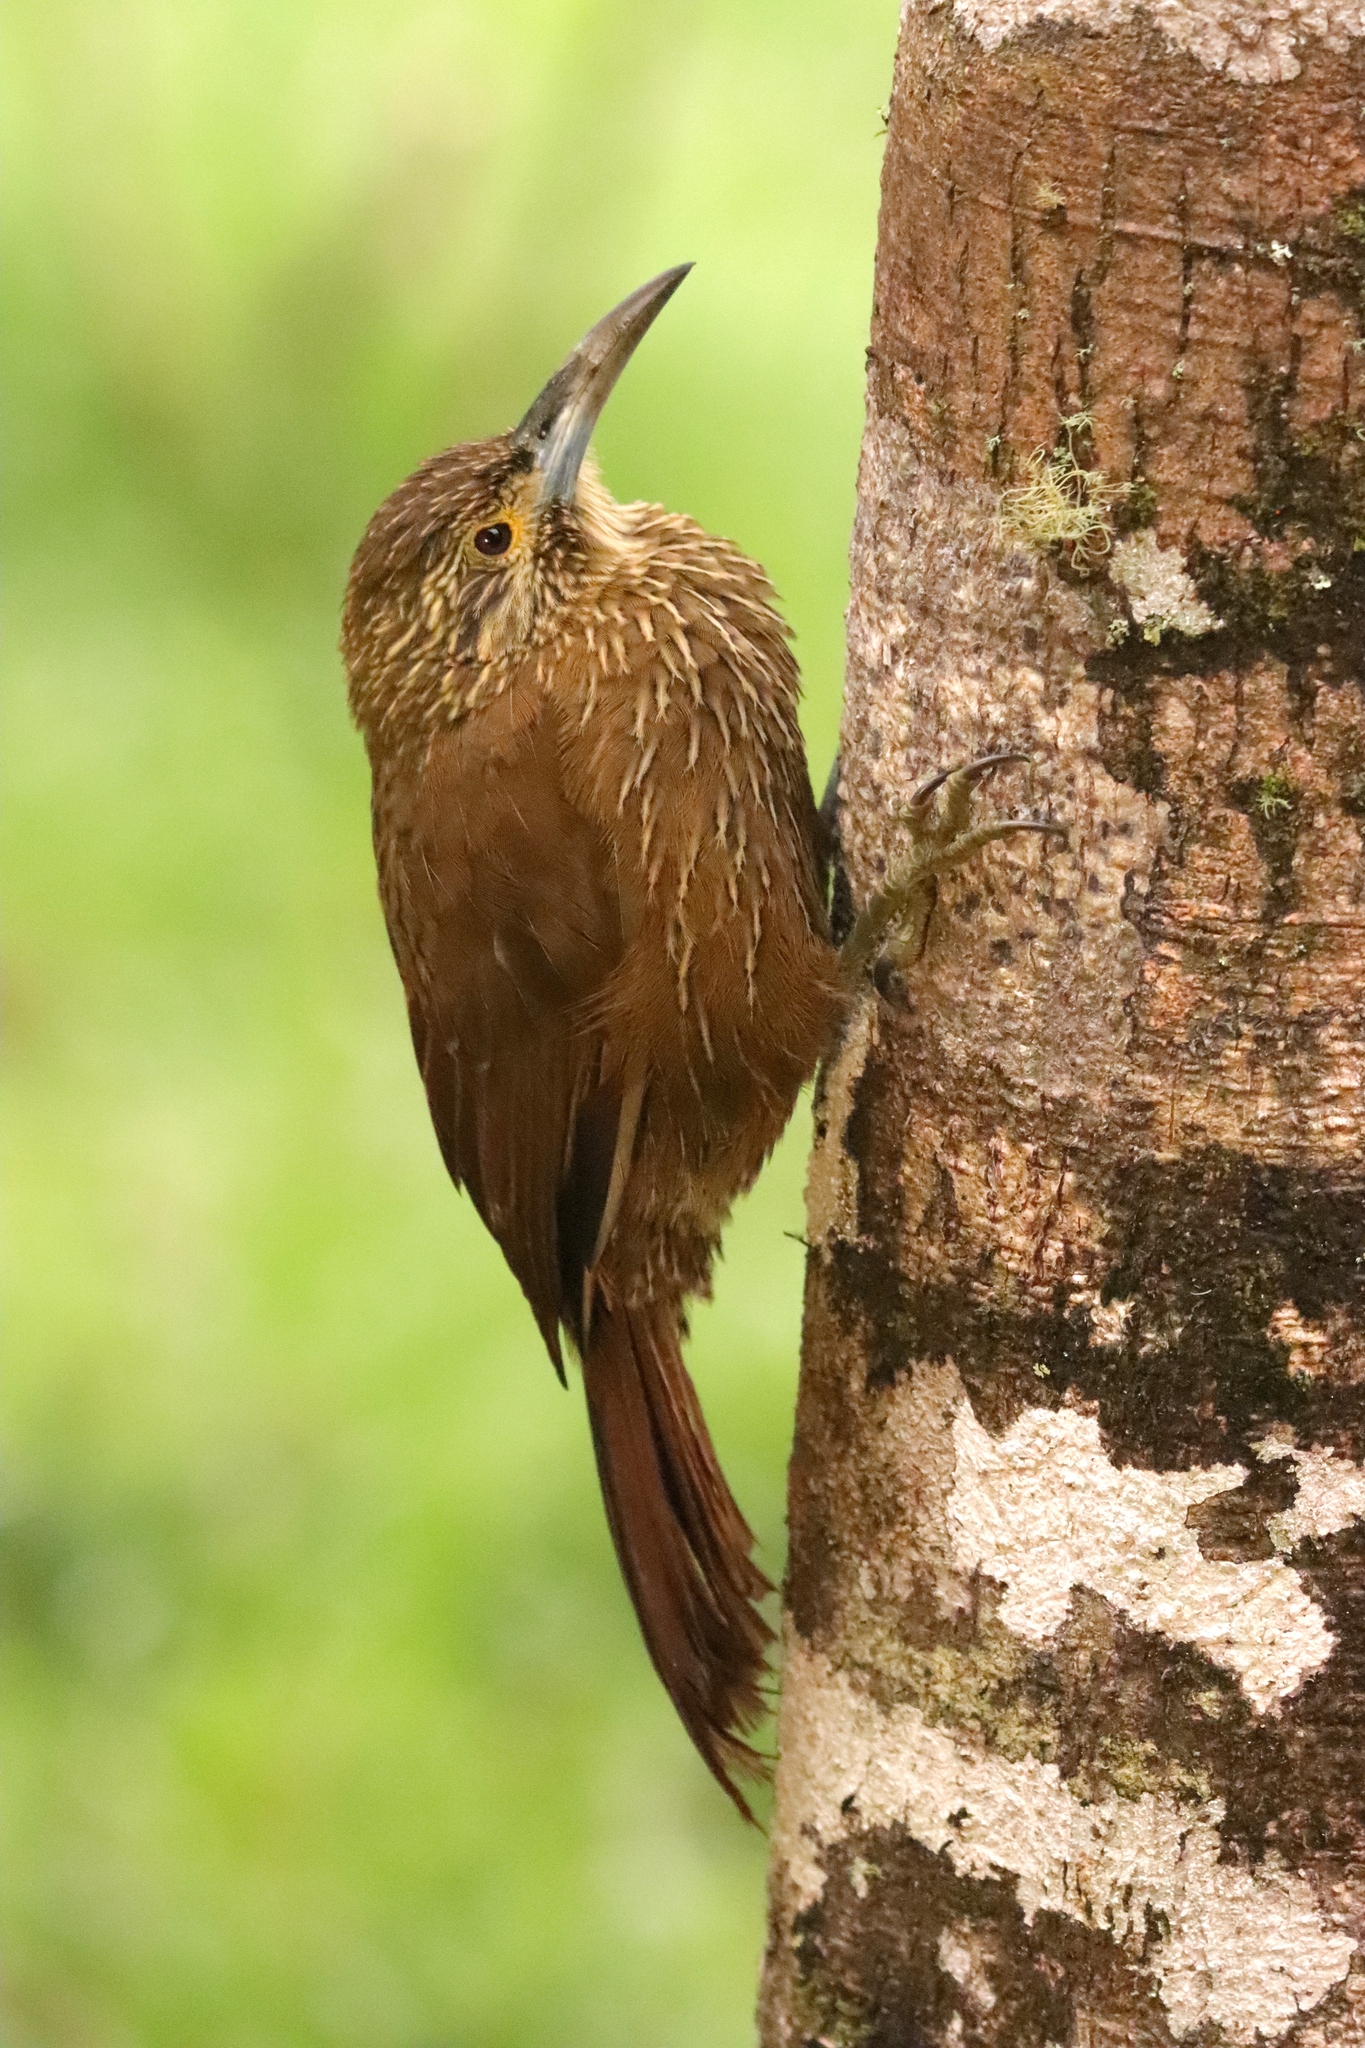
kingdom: Animalia
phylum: Chordata
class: Aves
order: Passeriformes
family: Furnariidae
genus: Xiphocolaptes
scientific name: Xiphocolaptes promeropirhynchus
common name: Strong-billed woodcreeper
